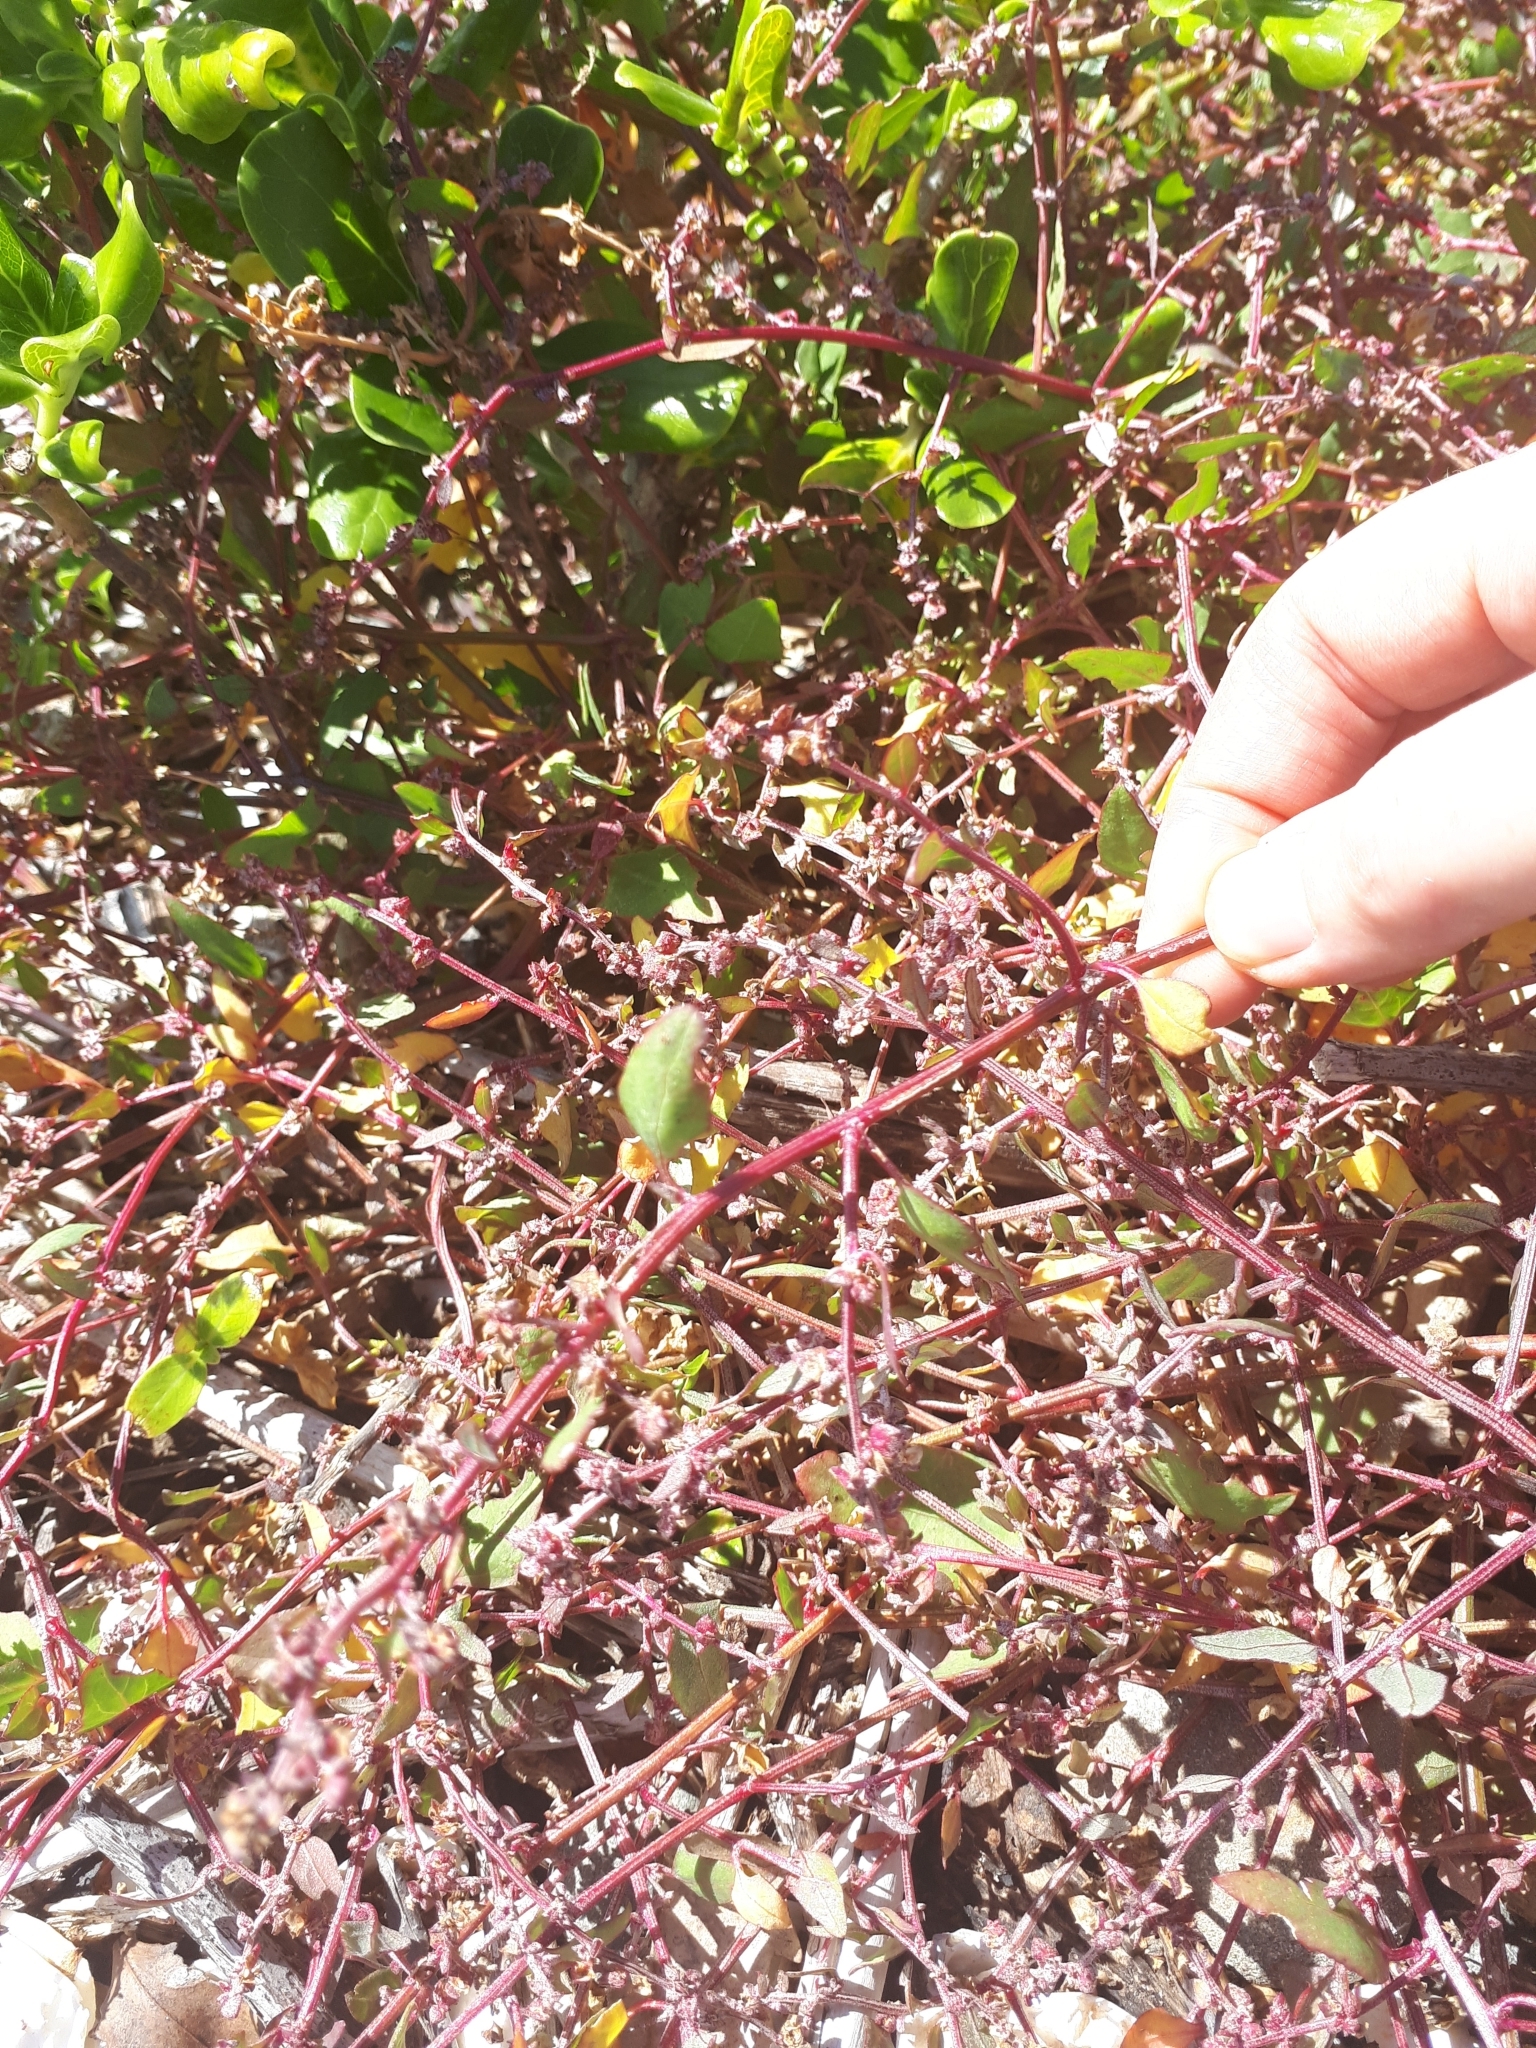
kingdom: Plantae
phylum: Tracheophyta
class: Magnoliopsida
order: Caryophyllales
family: Amaranthaceae
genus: Atriplex
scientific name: Atriplex prostrata
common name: Spear-leaved orache
